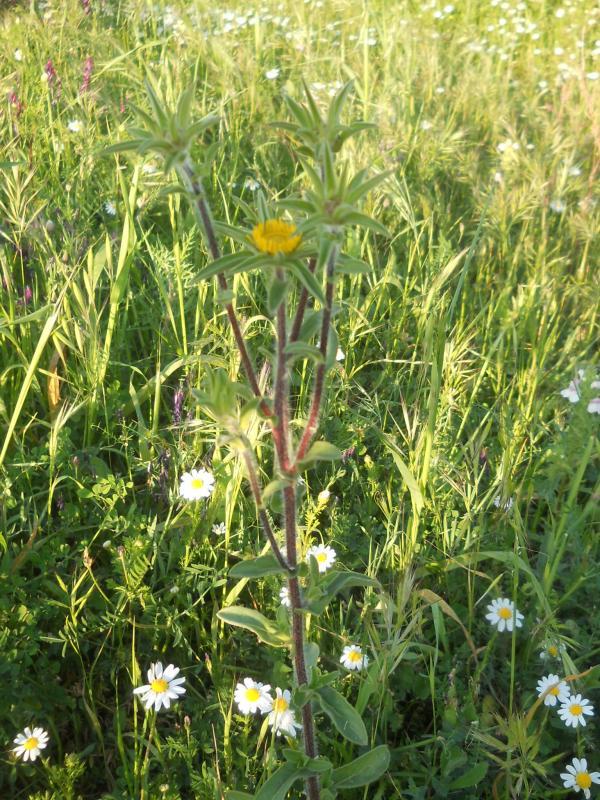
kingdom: Plantae
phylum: Tracheophyta
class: Magnoliopsida
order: Asterales
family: Asteraceae
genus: Pallenis
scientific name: Pallenis spinosa
